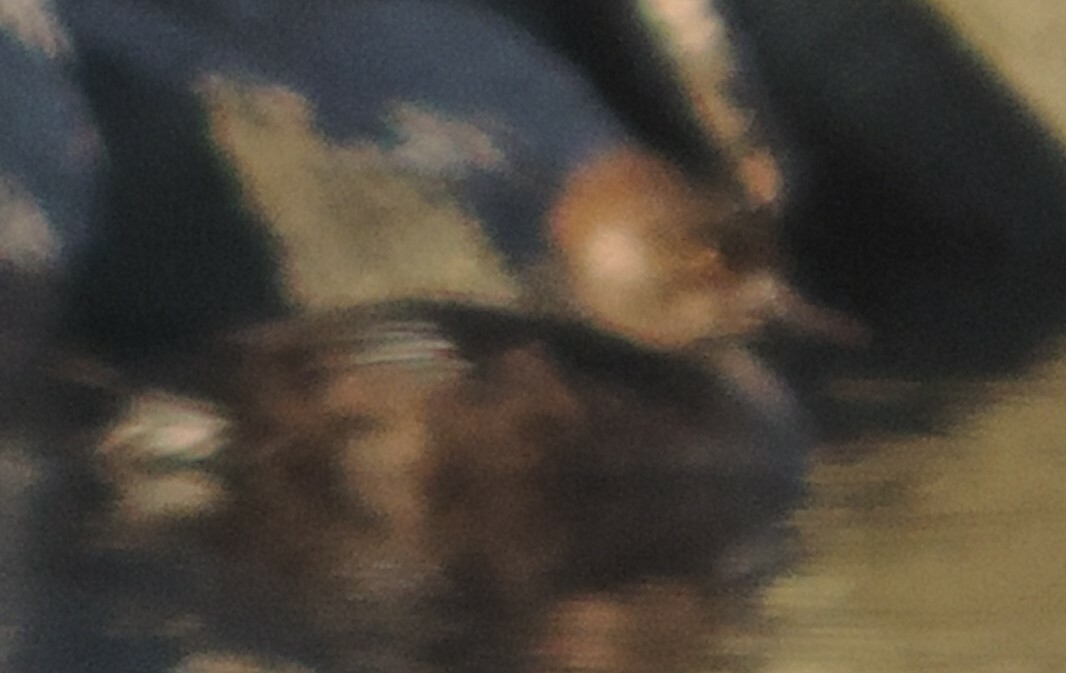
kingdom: Animalia
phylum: Chordata
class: Aves
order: Anseriformes
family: Anatidae
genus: Lophodytes
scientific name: Lophodytes cucullatus
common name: Hooded merganser
